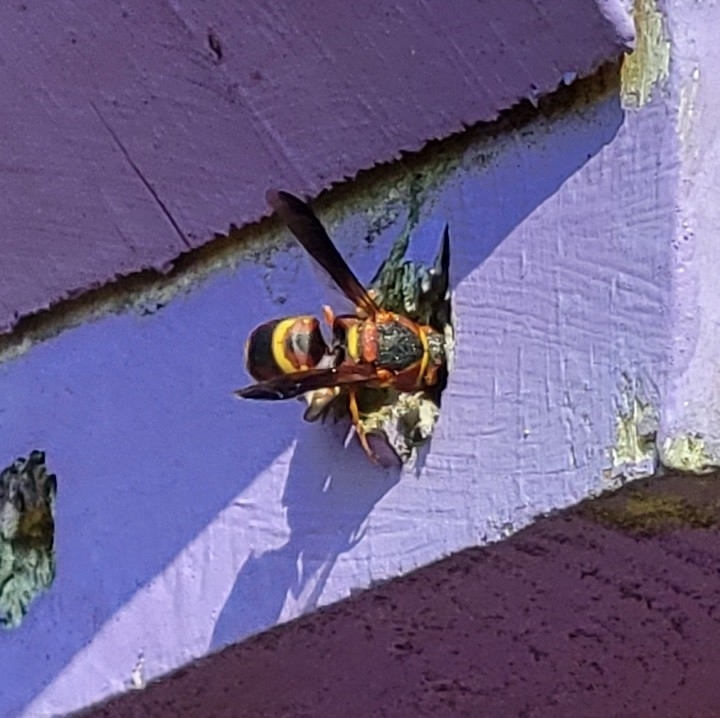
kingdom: Animalia
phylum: Arthropoda
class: Insecta
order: Hymenoptera
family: Eumenidae
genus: Euodynerus
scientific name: Euodynerus hidalgo
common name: Wasp
